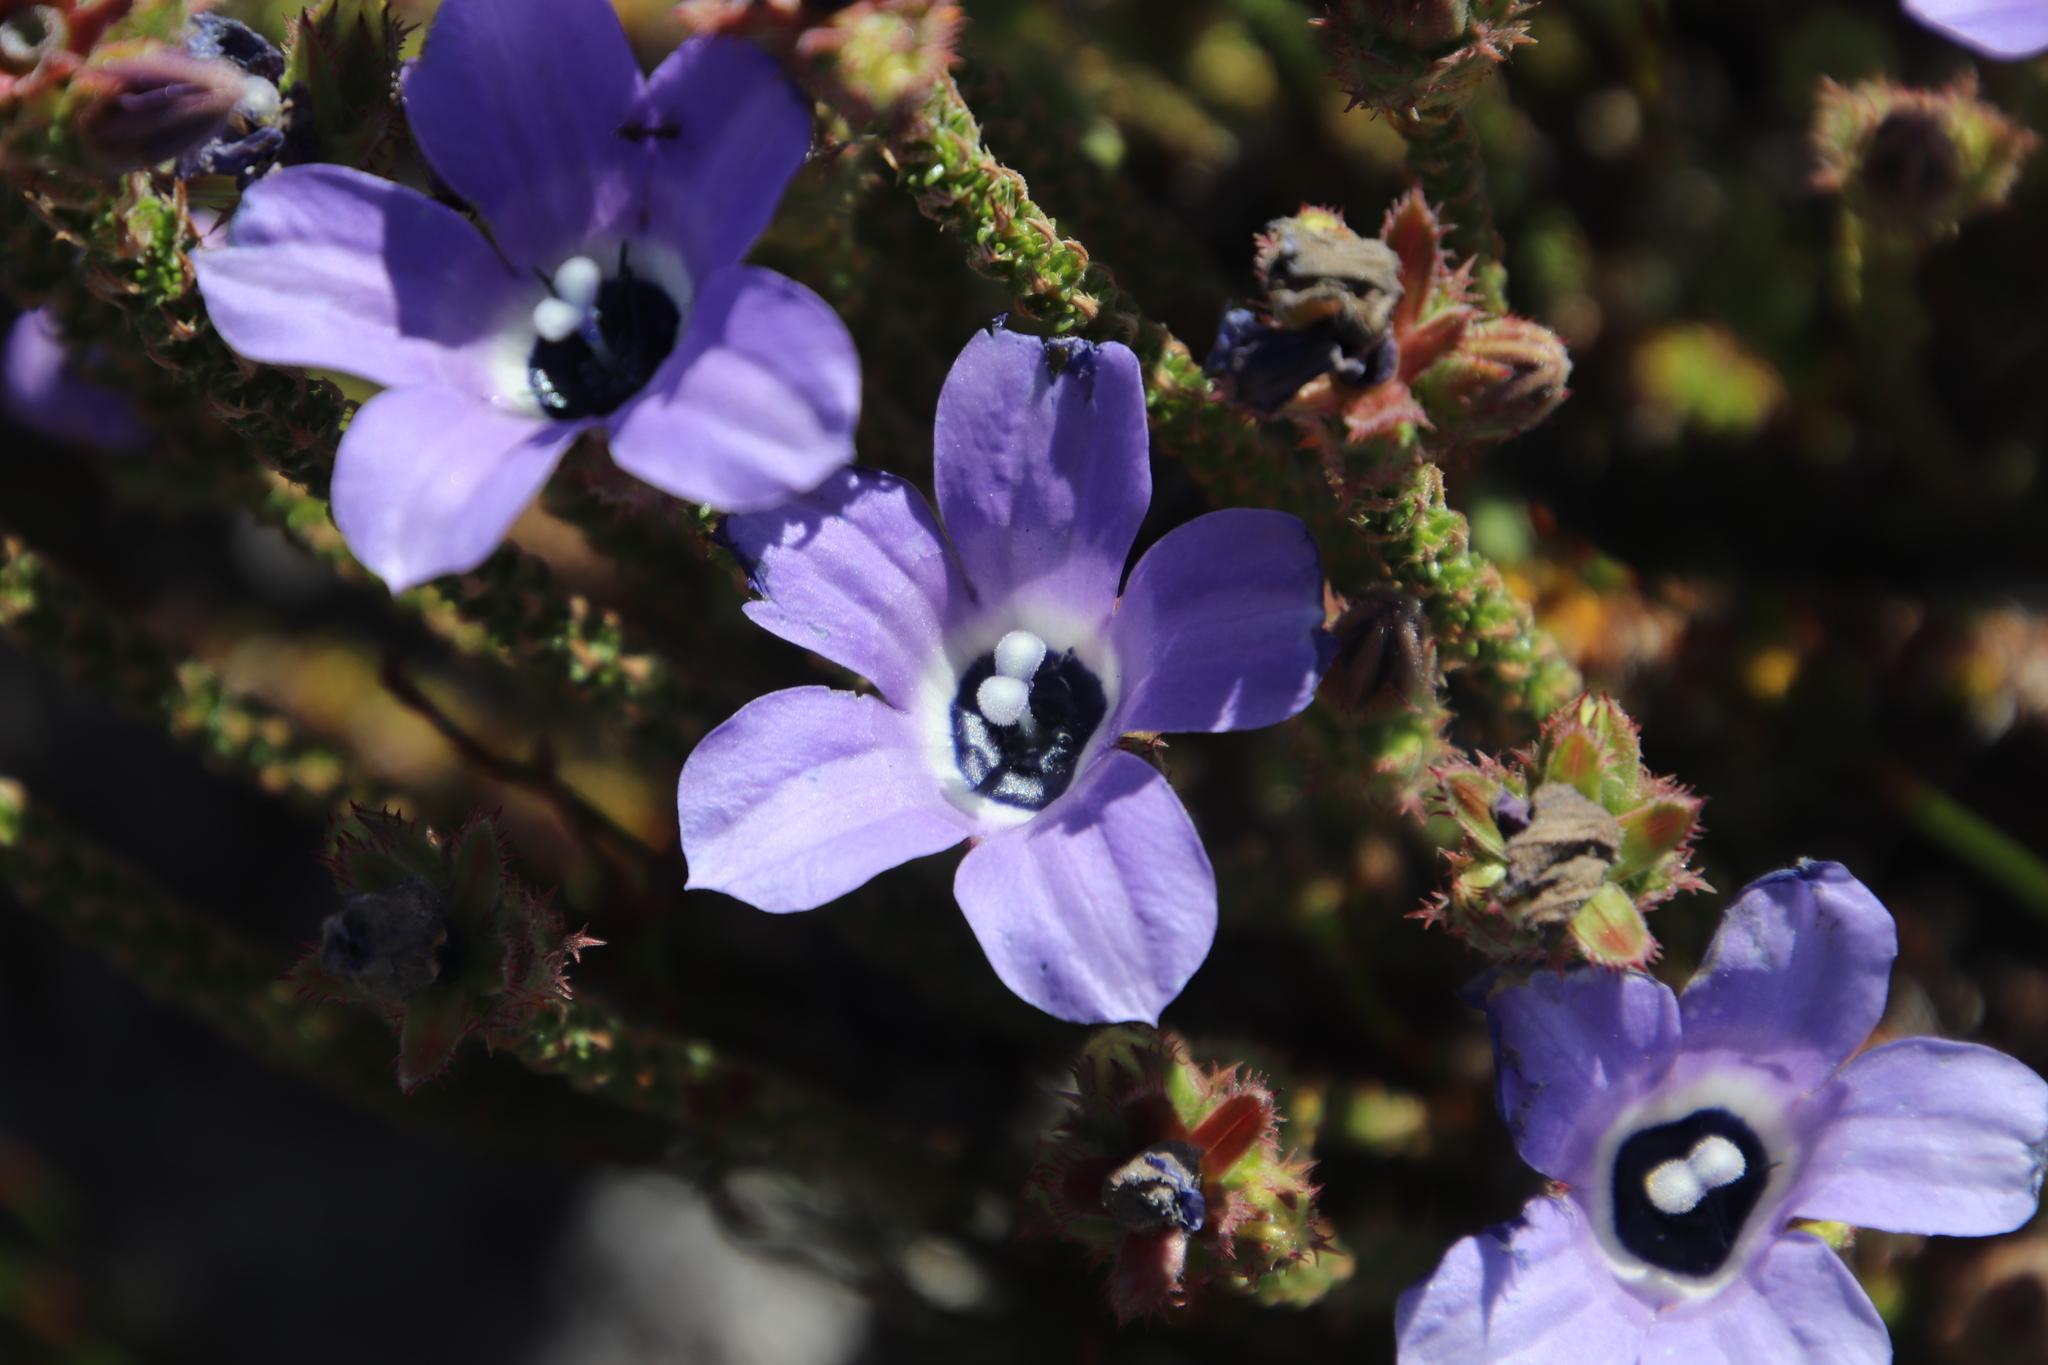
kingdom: Plantae
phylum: Tracheophyta
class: Magnoliopsida
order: Asterales
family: Campanulaceae
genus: Roella
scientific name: Roella triflora
